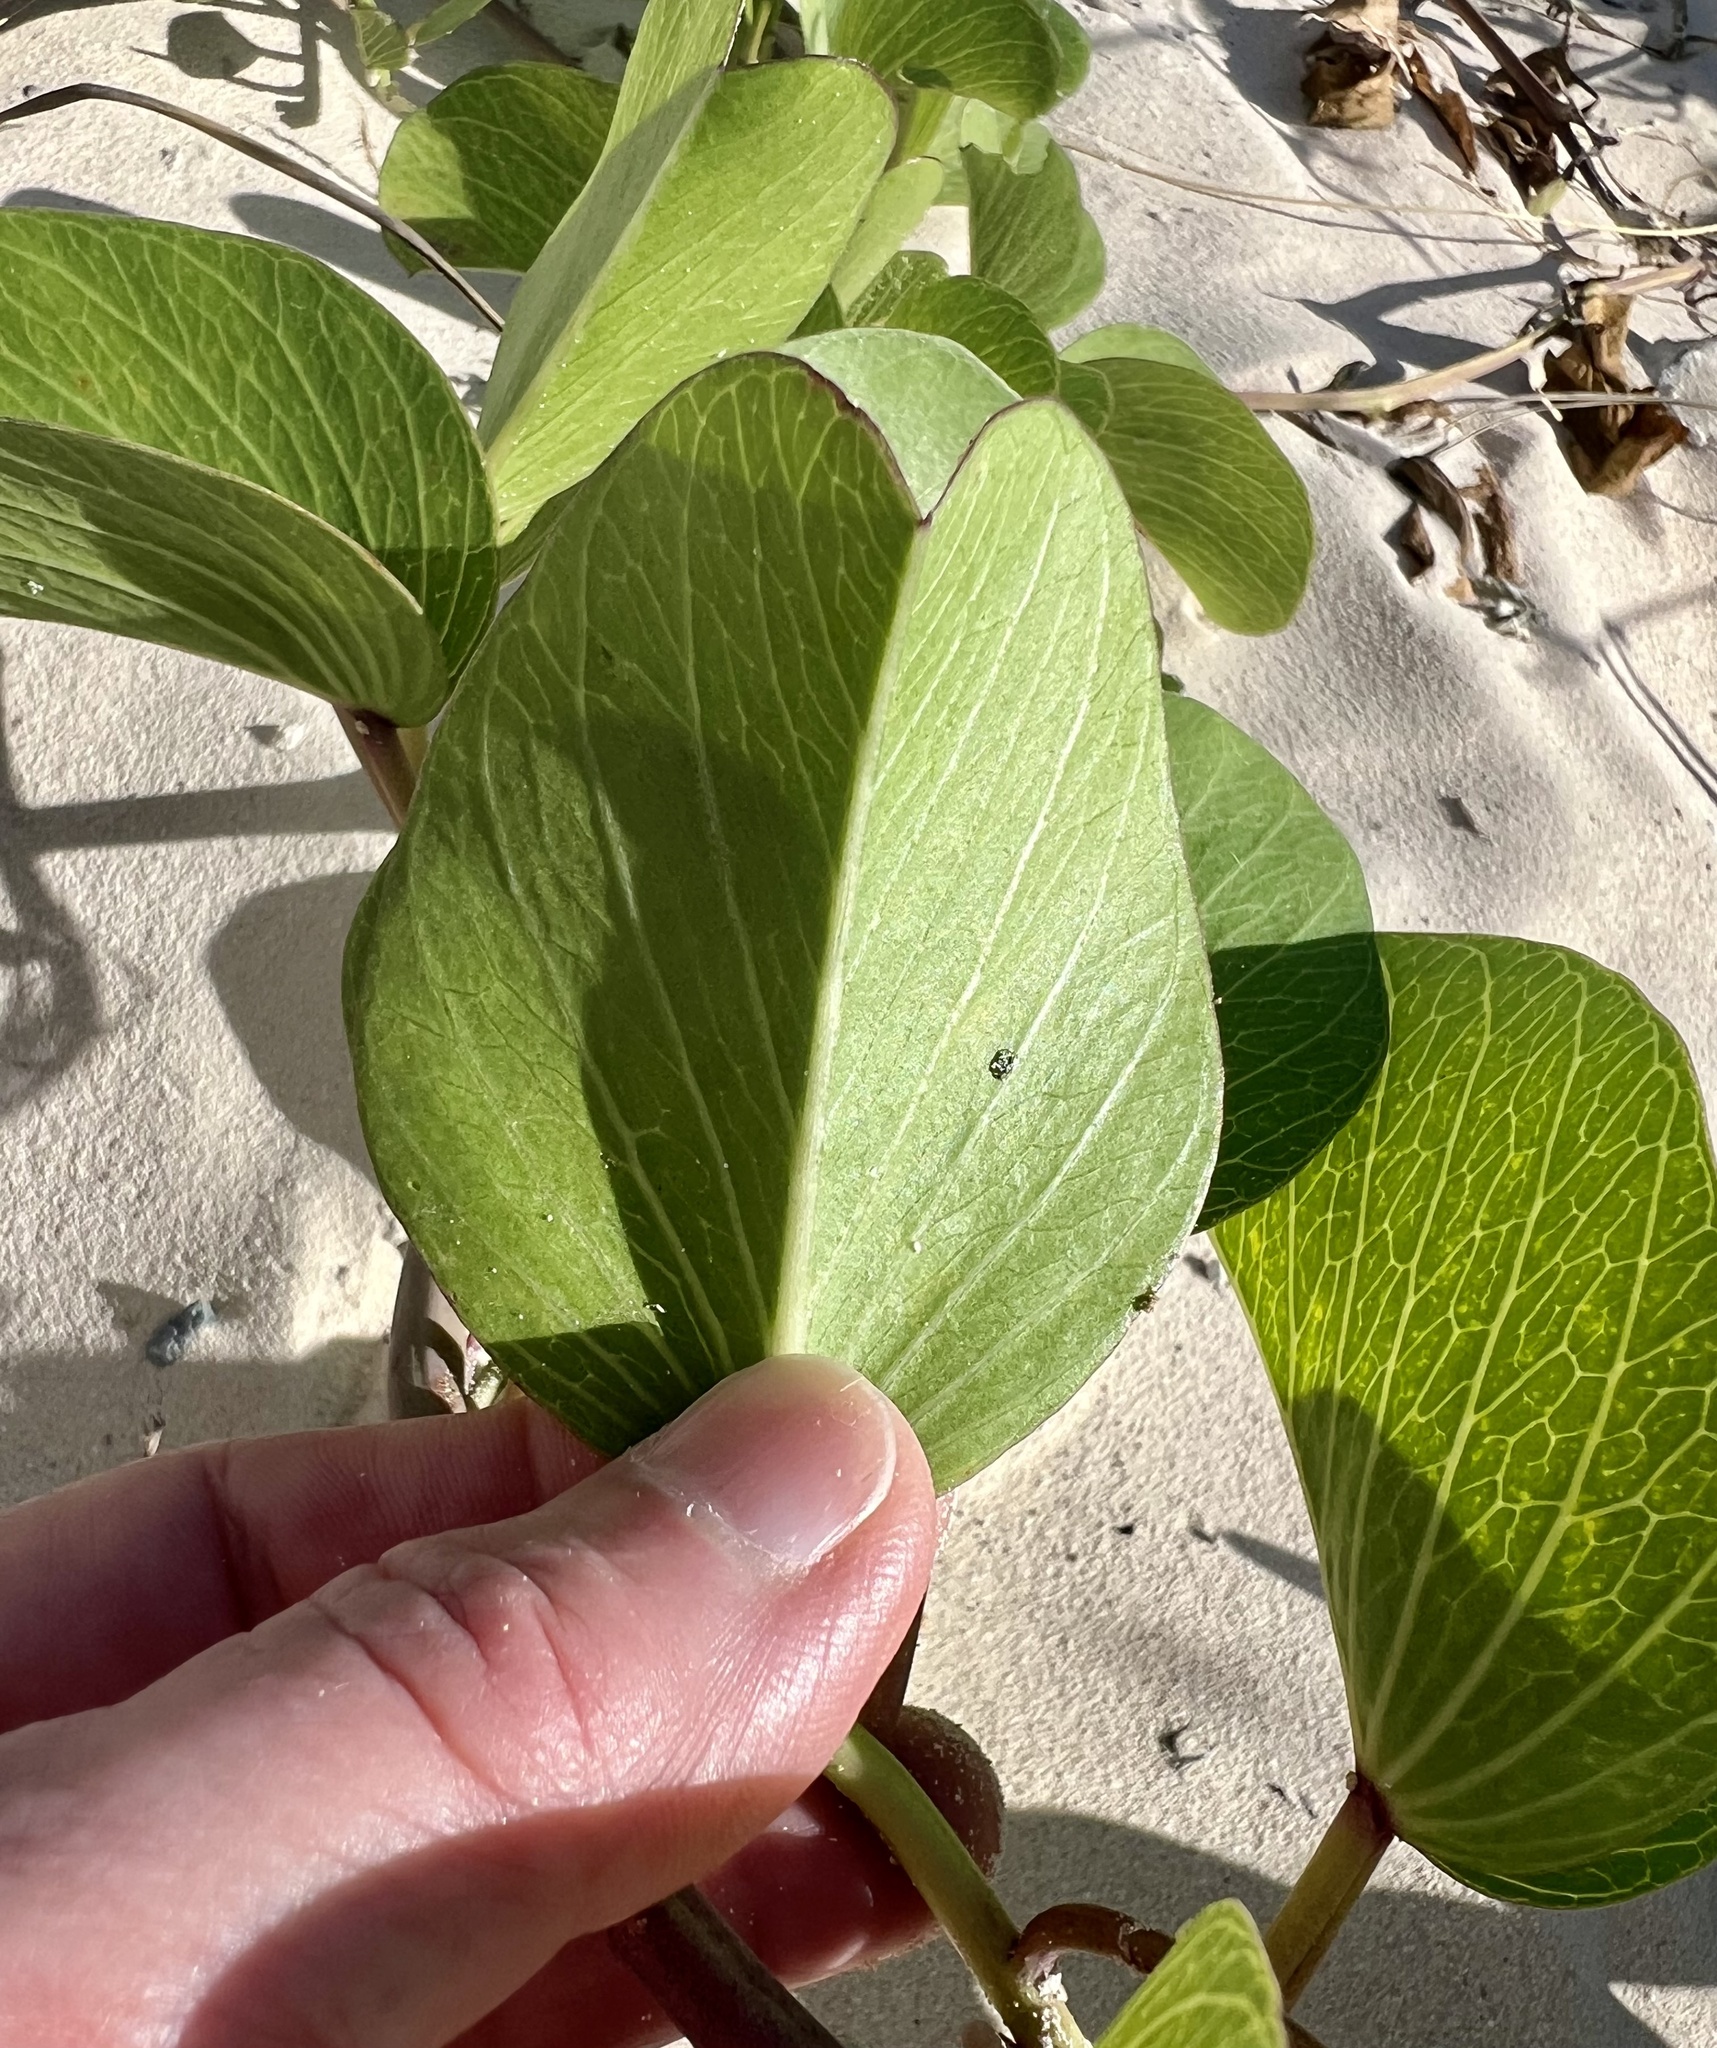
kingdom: Plantae
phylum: Tracheophyta
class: Magnoliopsida
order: Solanales
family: Convolvulaceae
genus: Ipomoea
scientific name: Ipomoea pes-caprae
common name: Beach morning glory
